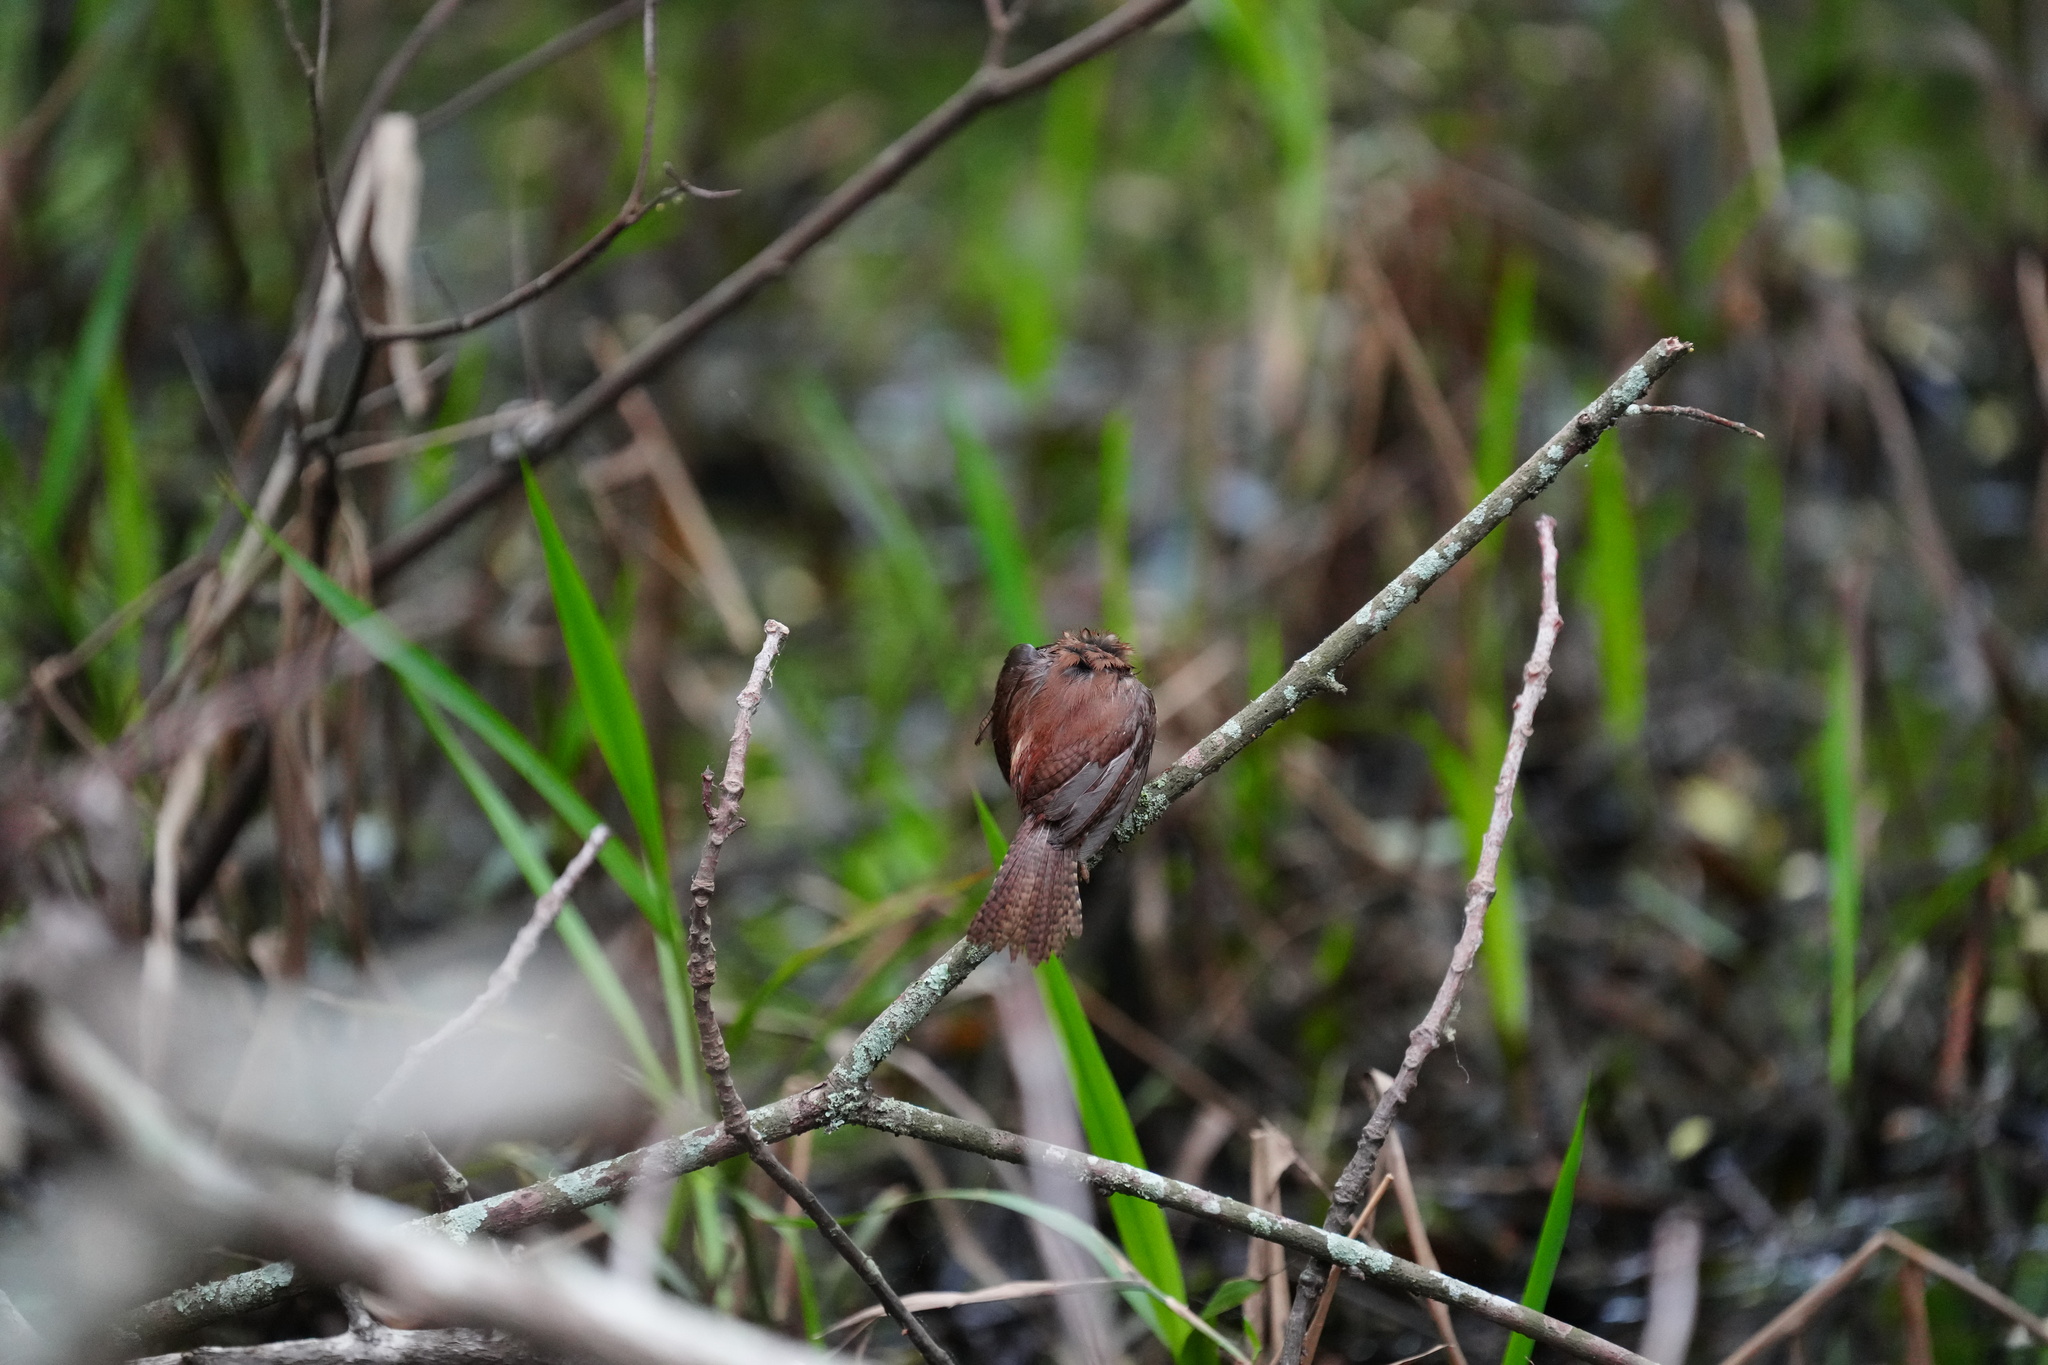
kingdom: Animalia
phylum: Chordata
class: Aves
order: Passeriformes
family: Troglodytidae
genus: Thryothorus
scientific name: Thryothorus ludovicianus
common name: Carolina wren
